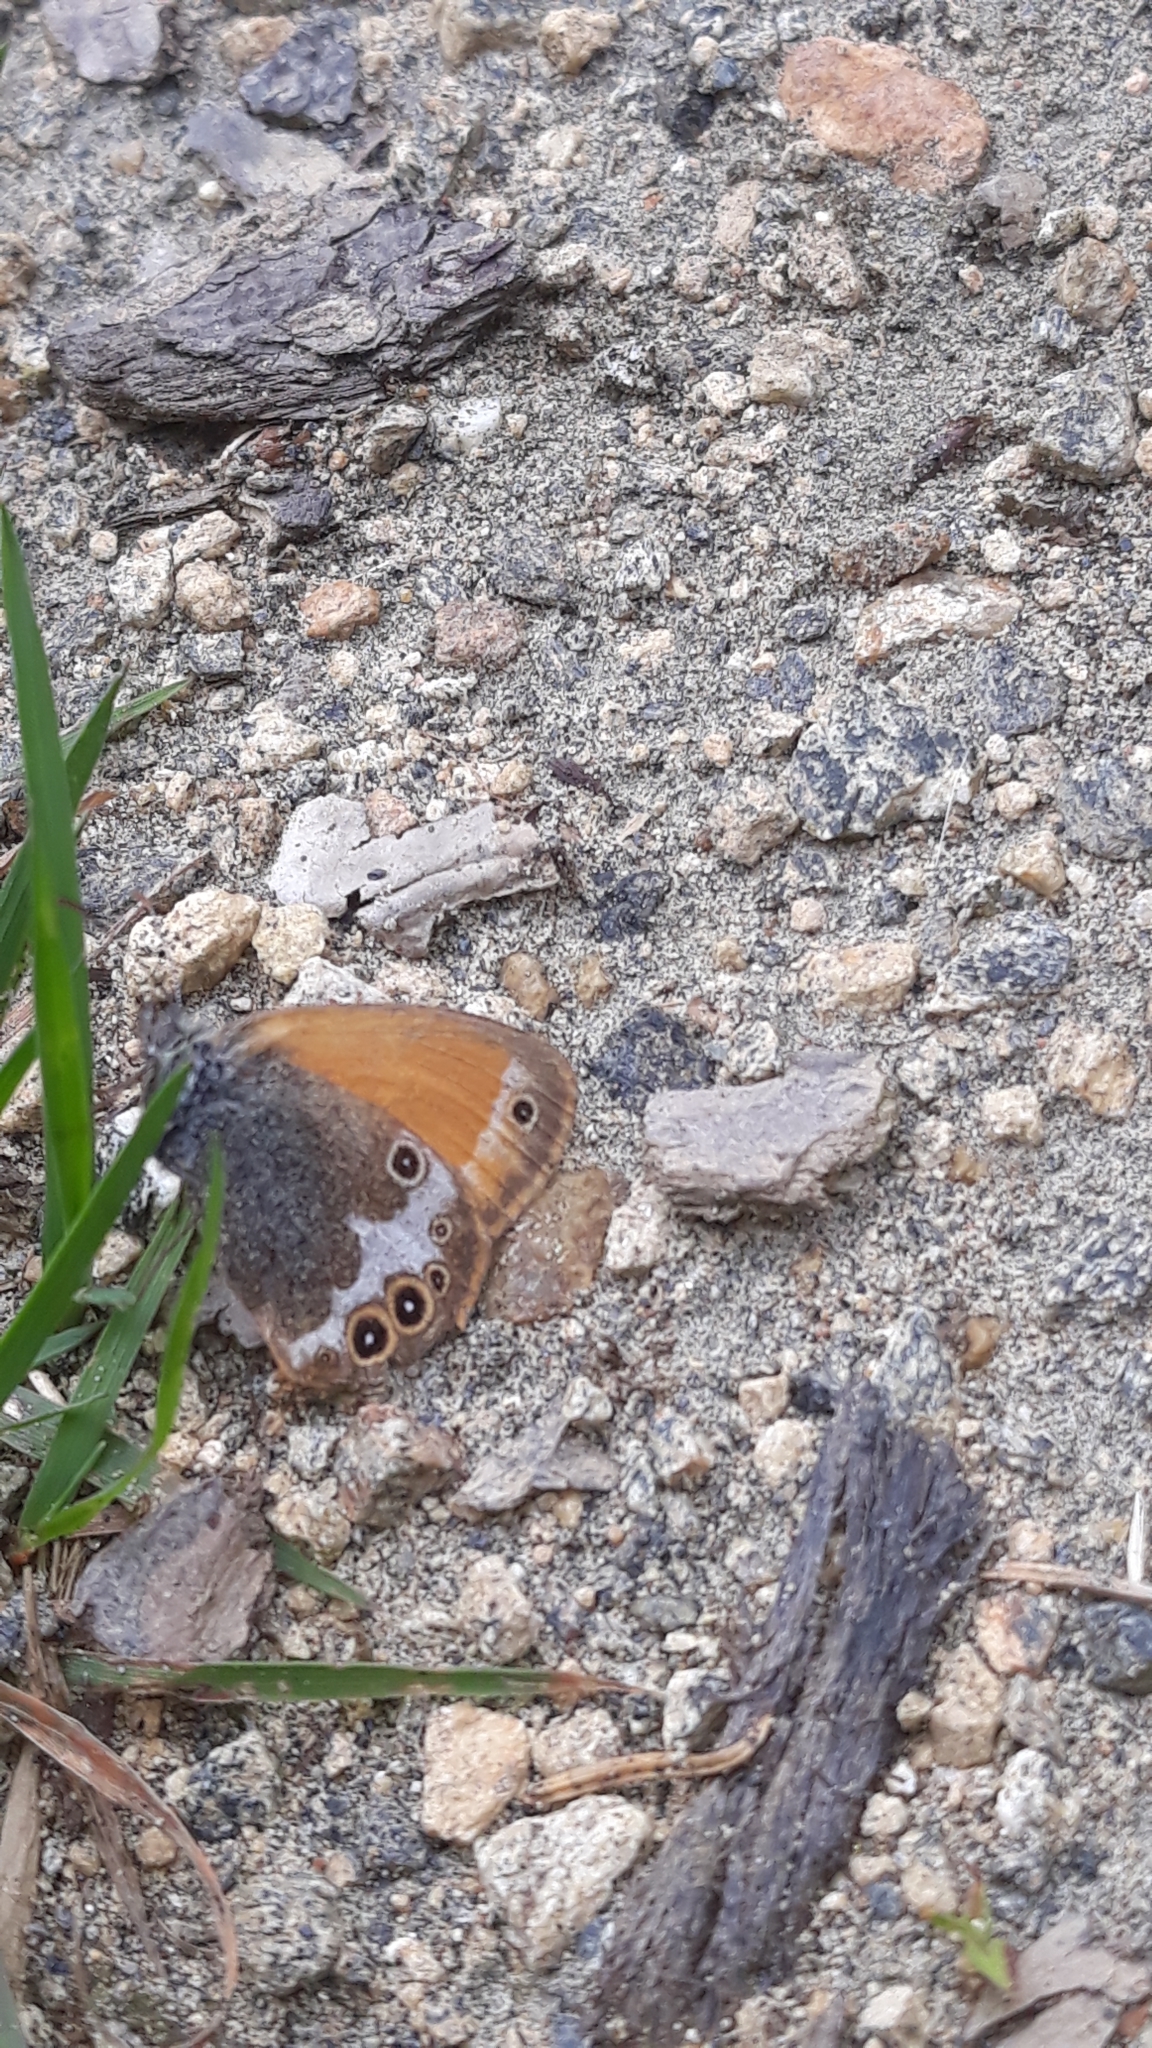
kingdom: Animalia
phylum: Arthropoda
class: Insecta
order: Lepidoptera
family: Nymphalidae
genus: Coenonympha
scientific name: Coenonympha arcania
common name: Pearly heath
